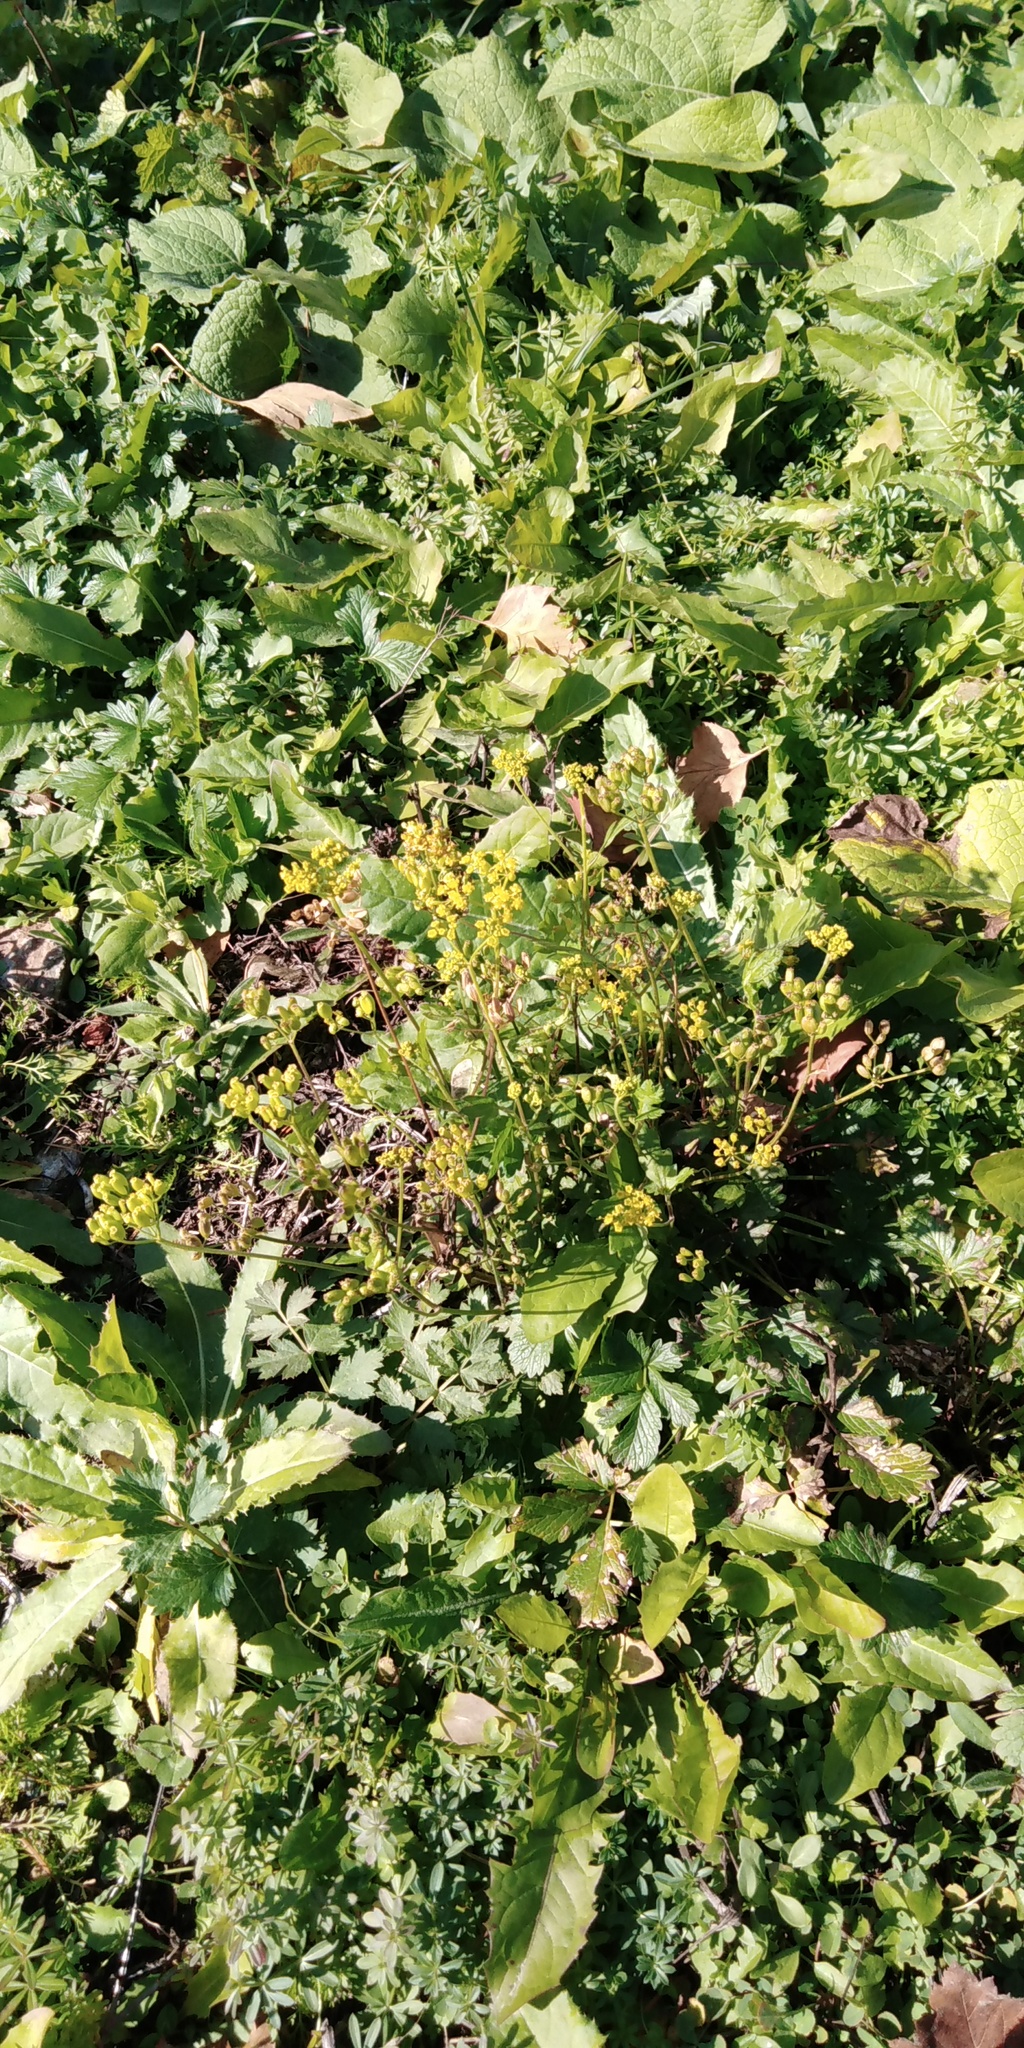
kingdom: Plantae
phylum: Tracheophyta
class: Magnoliopsida
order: Apiales
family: Apiaceae
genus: Pastinaca
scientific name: Pastinaca sativa
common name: Wild parsnip
